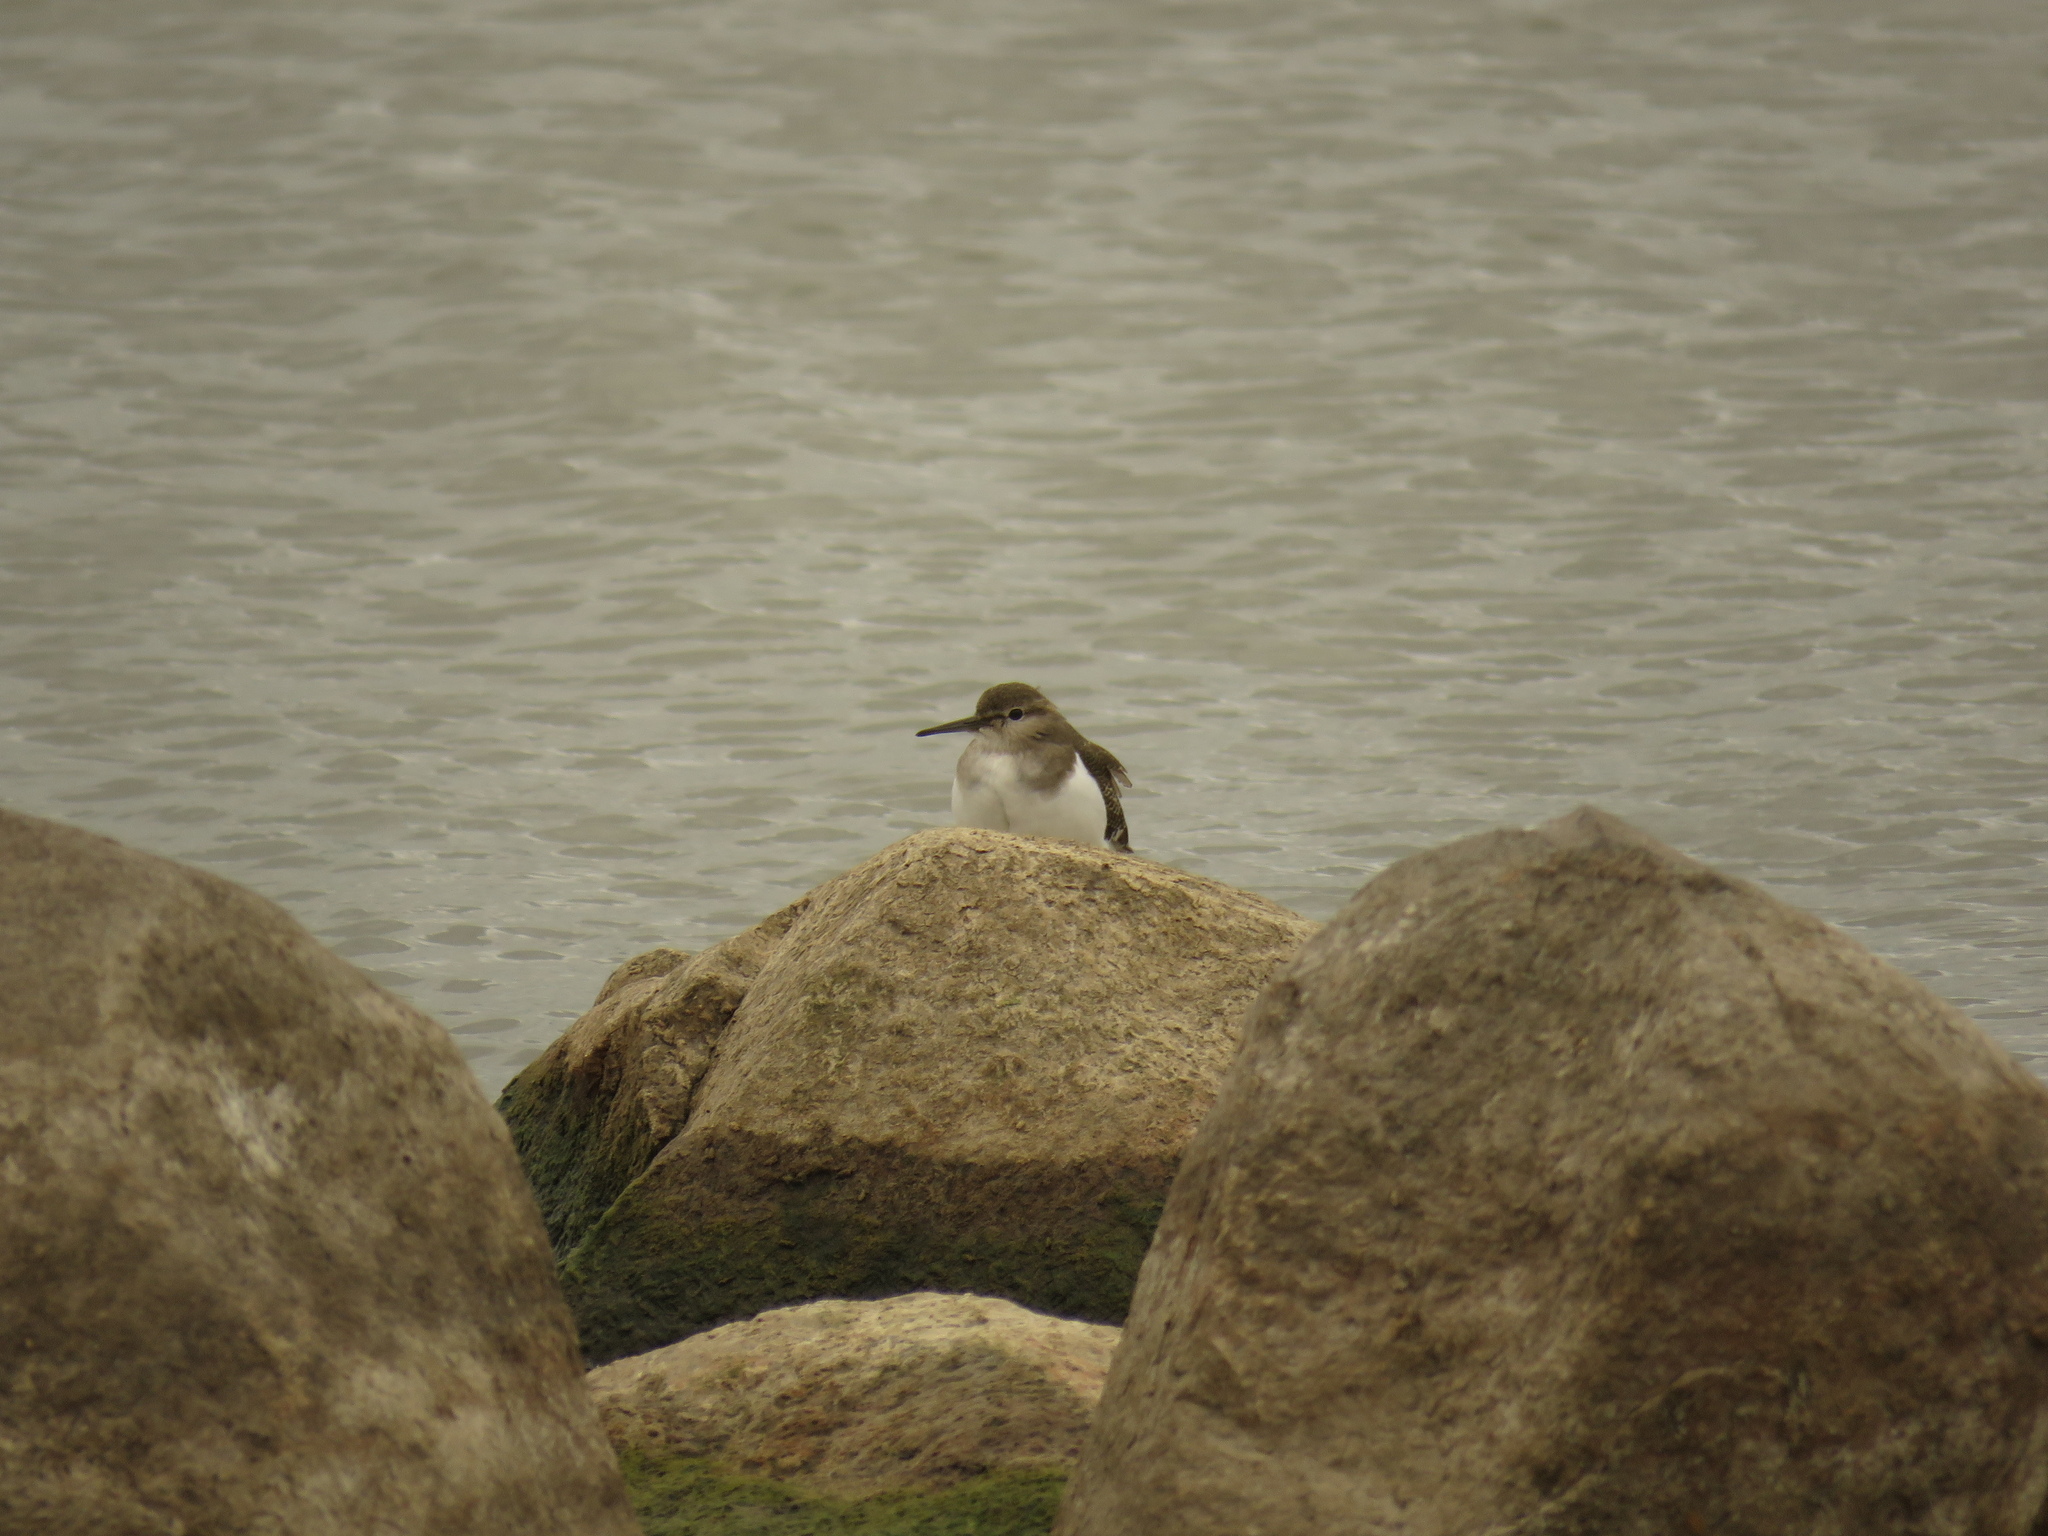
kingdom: Animalia
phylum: Chordata
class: Aves
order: Charadriiformes
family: Scolopacidae
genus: Actitis
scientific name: Actitis hypoleucos
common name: Common sandpiper
